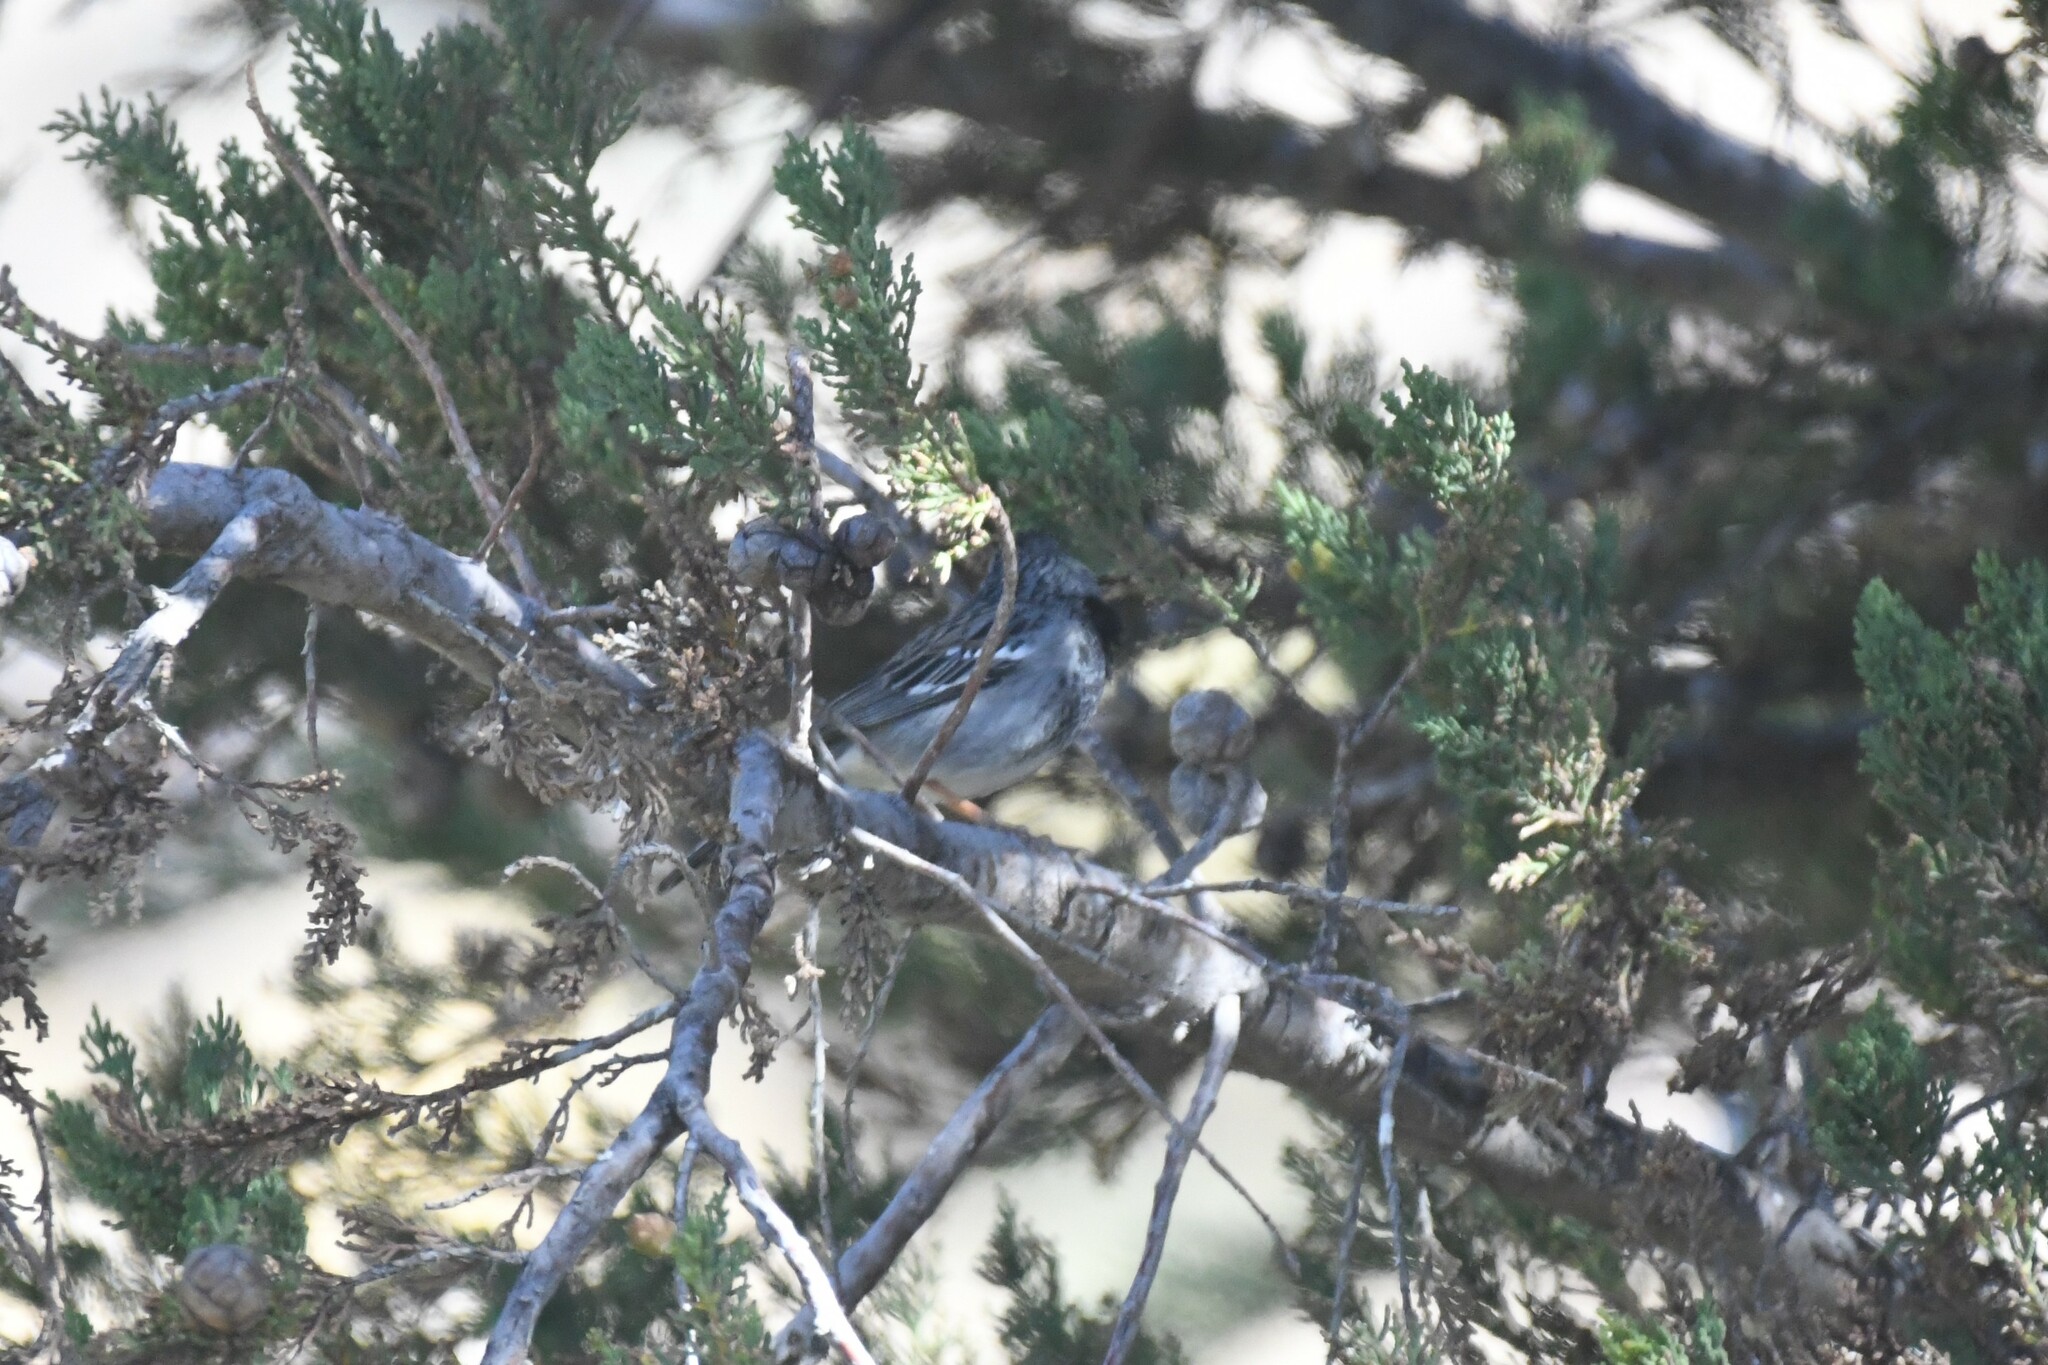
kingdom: Animalia
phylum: Chordata
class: Aves
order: Passeriformes
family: Thraupidae
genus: Rhopospina
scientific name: Rhopospina fruticeti
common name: Mourning sierra finch
